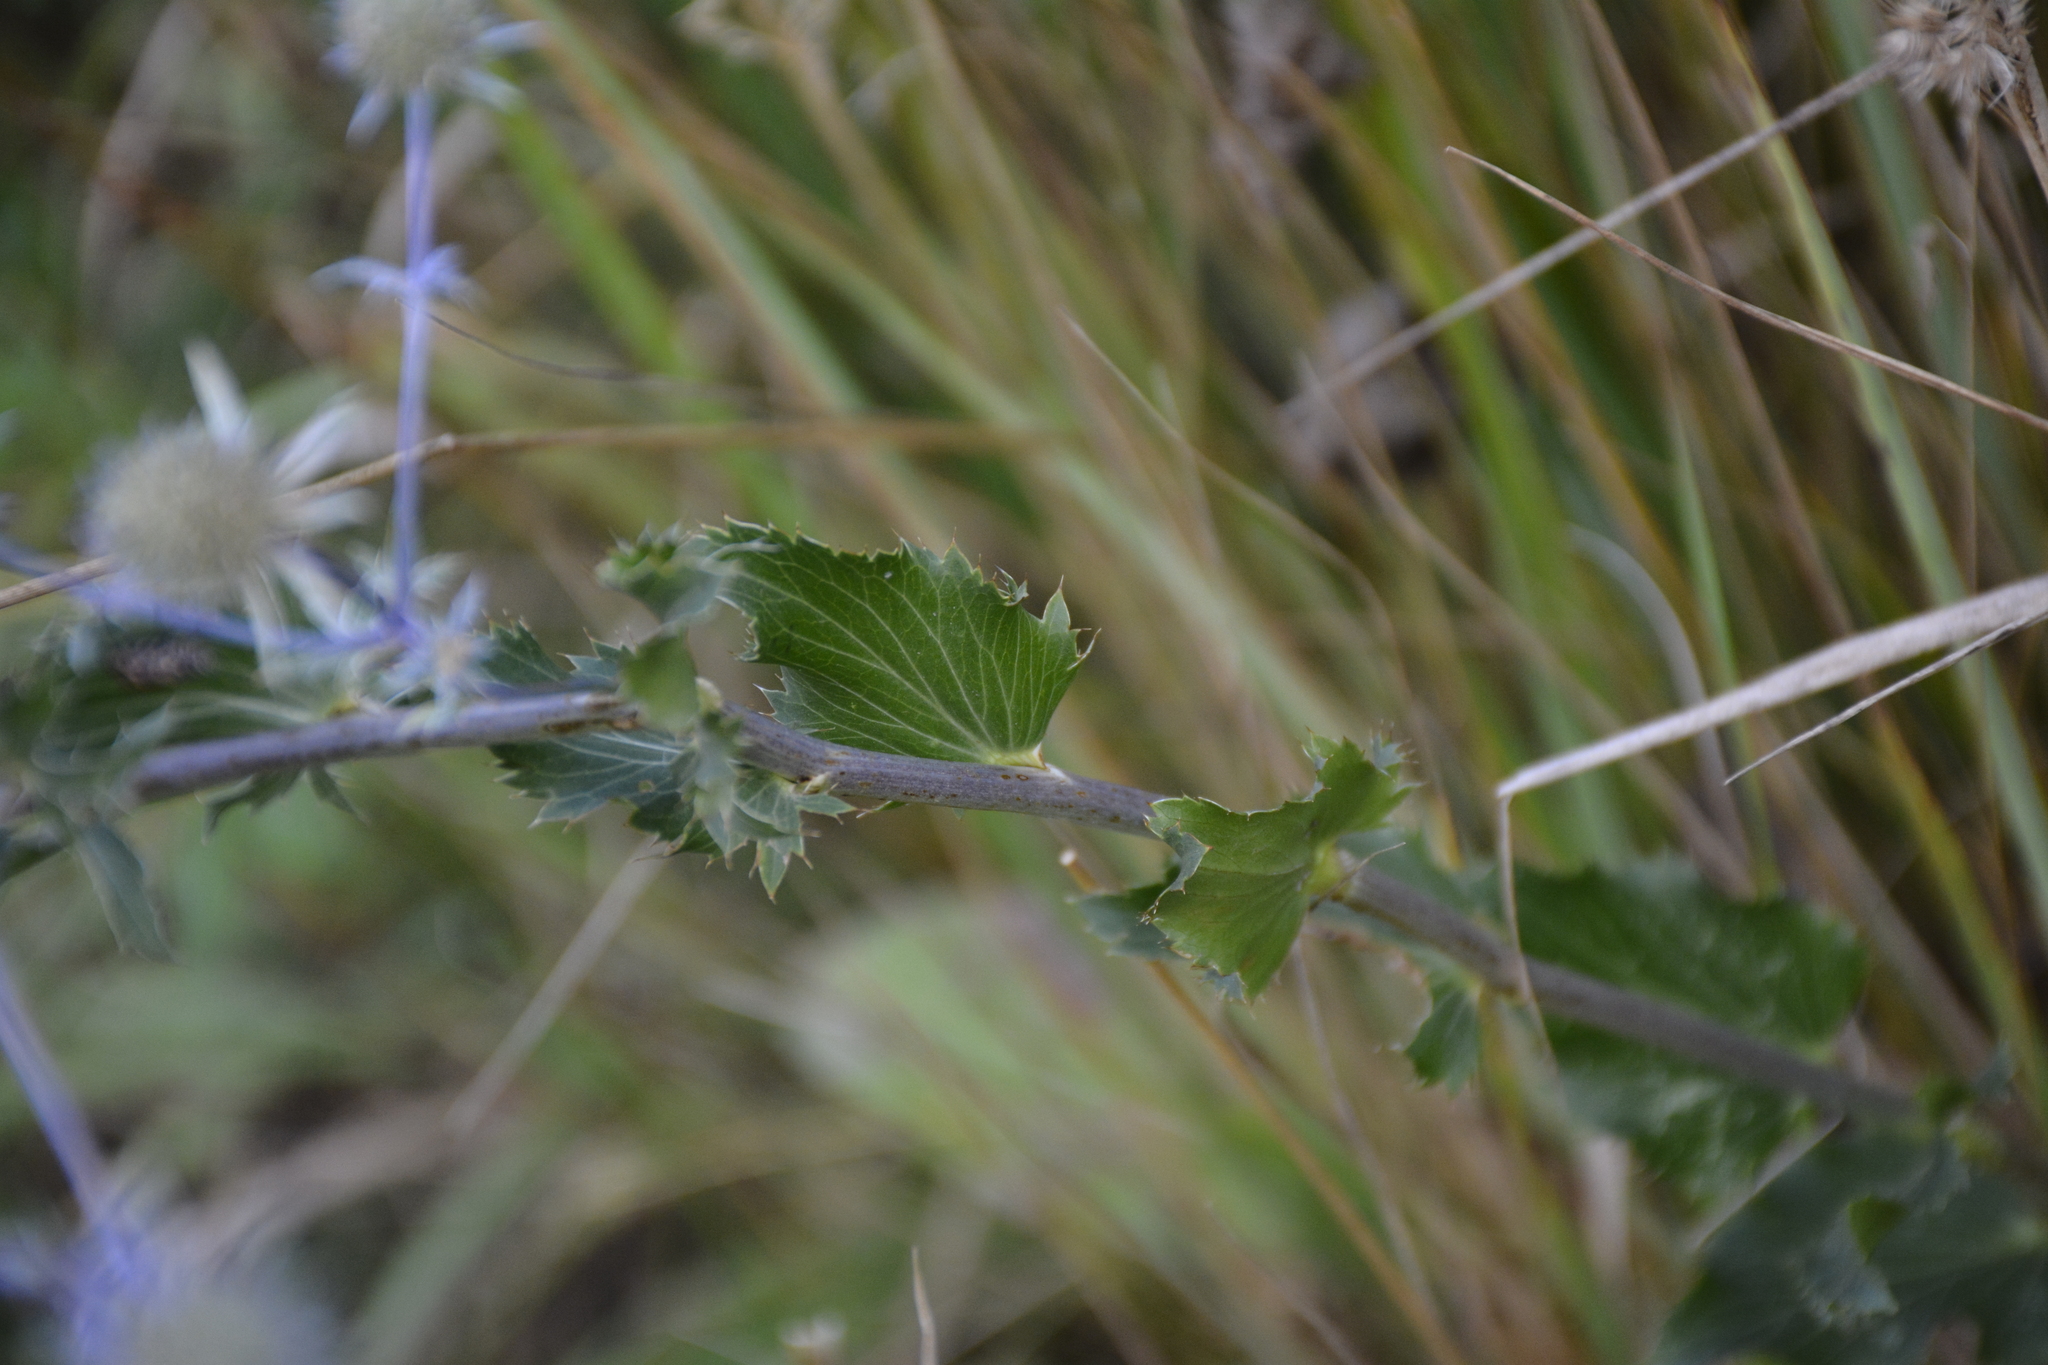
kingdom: Plantae
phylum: Tracheophyta
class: Magnoliopsida
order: Apiales
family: Apiaceae
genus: Eryngium
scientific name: Eryngium planum
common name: Blue eryngo
